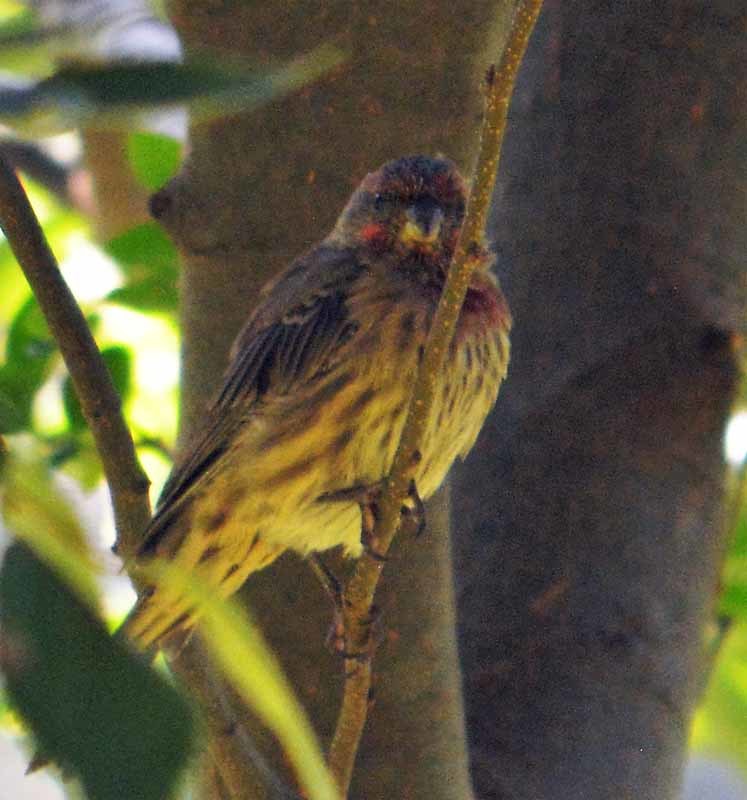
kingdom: Animalia
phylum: Chordata
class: Aves
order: Passeriformes
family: Fringillidae
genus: Haemorhous
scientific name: Haemorhous mexicanus
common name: House finch
